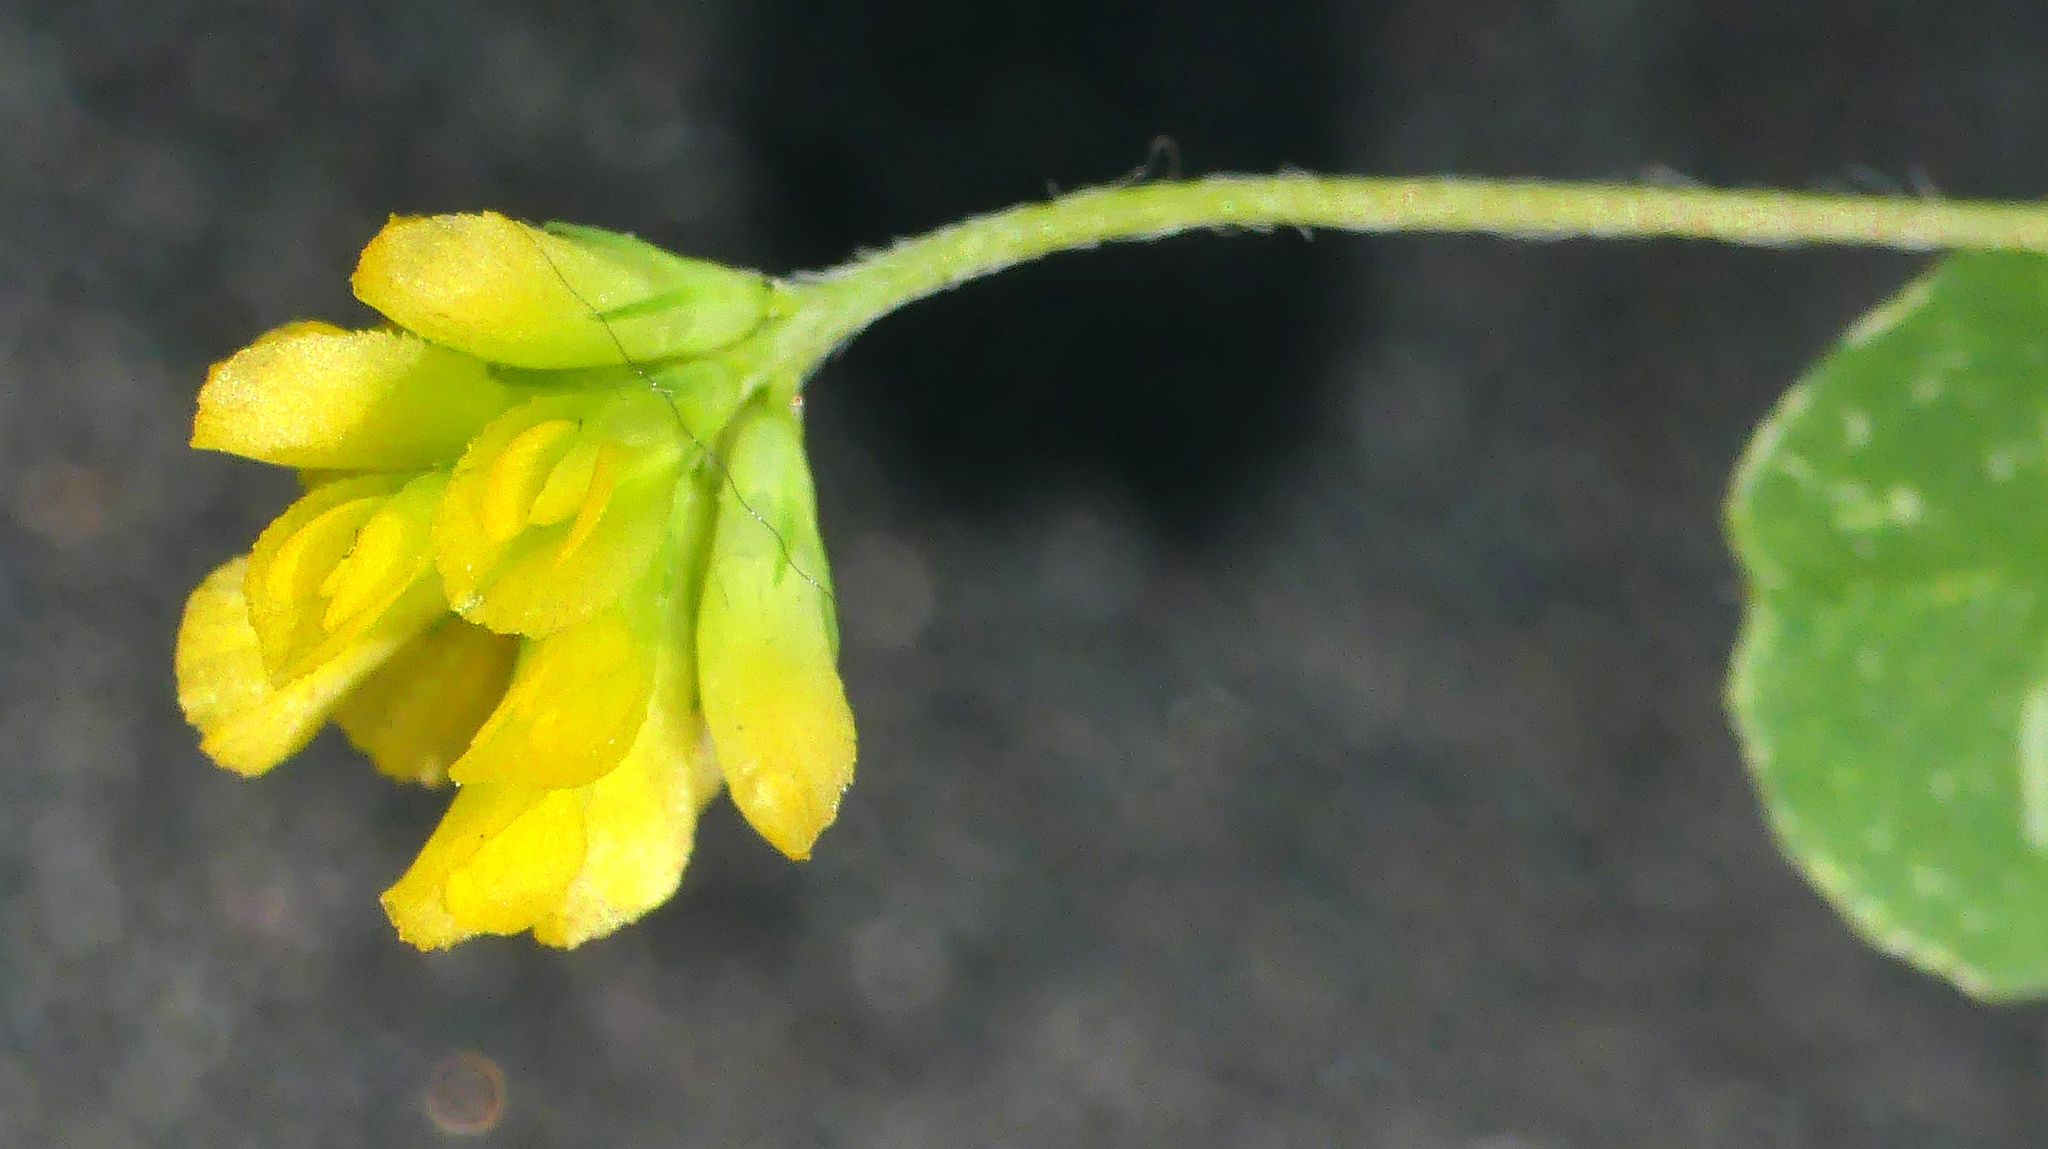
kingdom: Plantae
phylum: Tracheophyta
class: Magnoliopsida
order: Fabales
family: Fabaceae
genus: Trifolium
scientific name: Trifolium dubium
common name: Suckling clover
